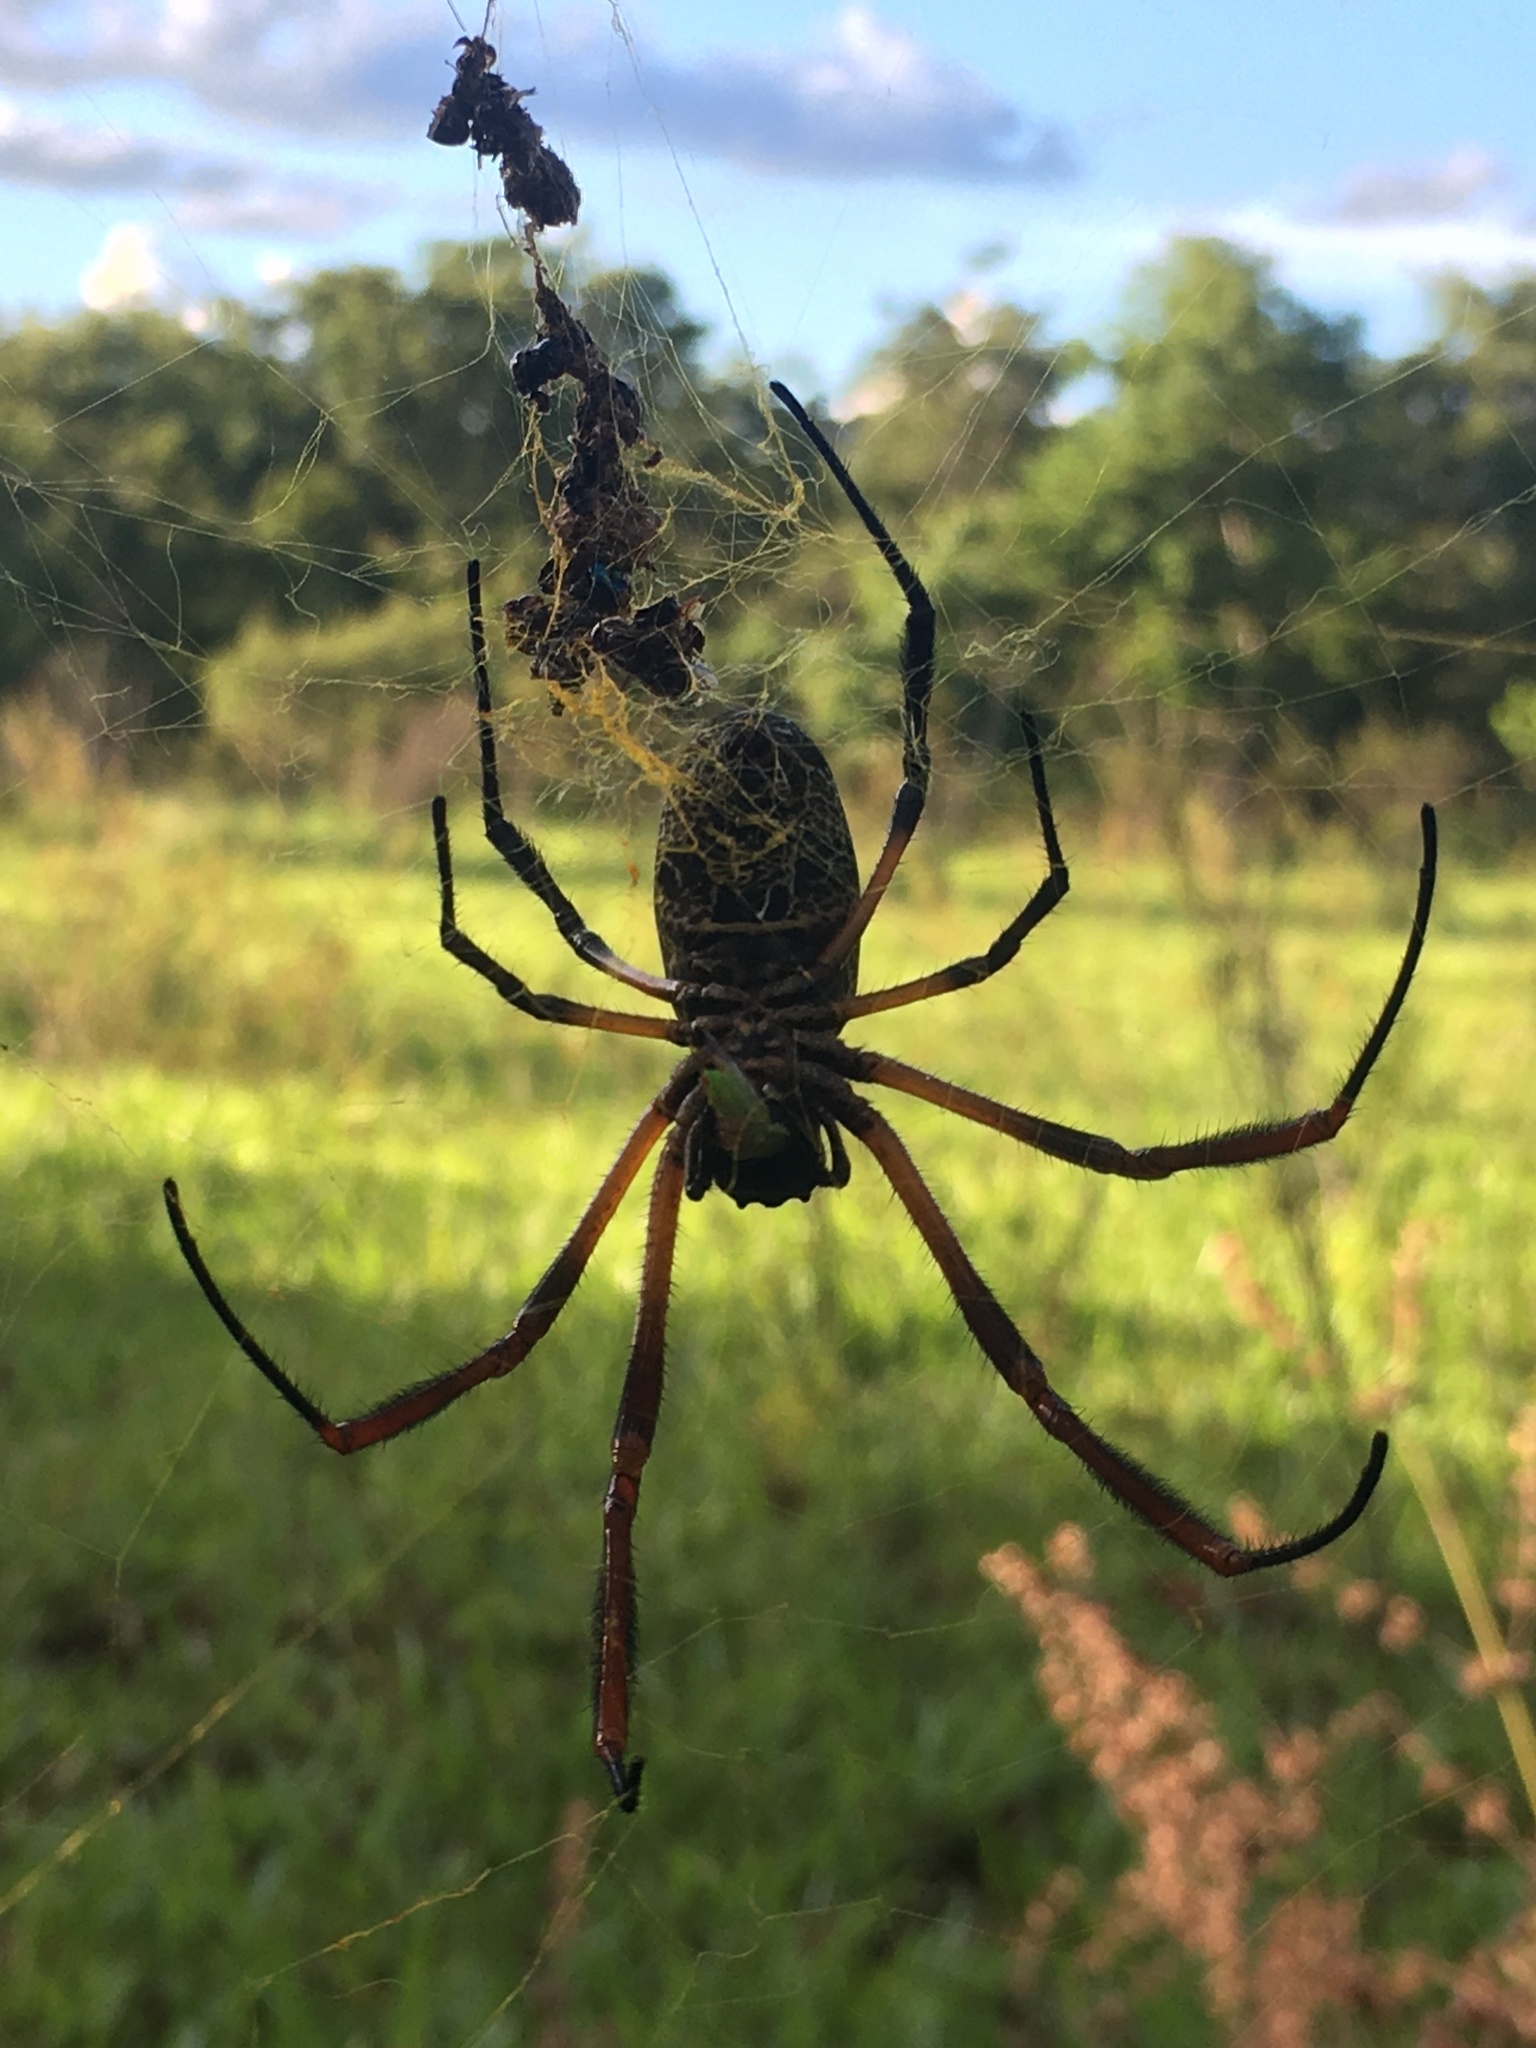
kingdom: Animalia
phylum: Arthropoda
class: Arachnida
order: Araneae
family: Araneidae
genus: Trichonephila
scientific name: Trichonephila sexpunctata
